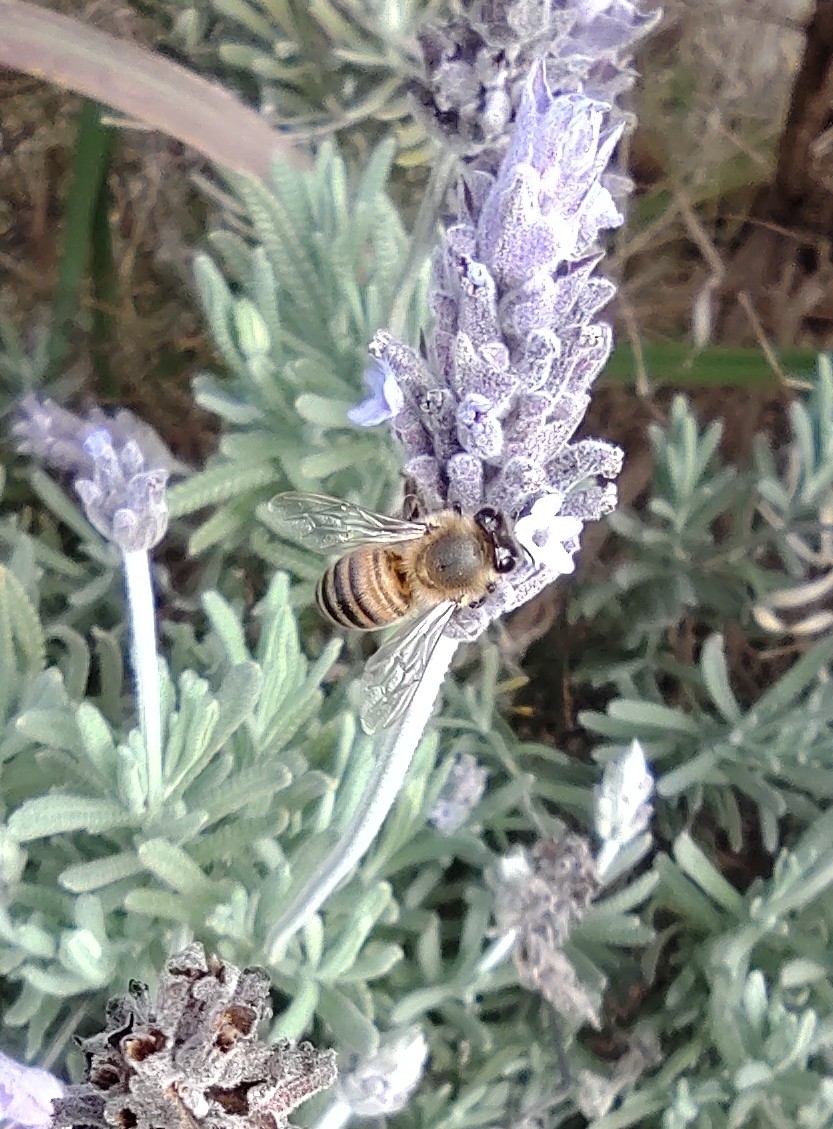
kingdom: Animalia
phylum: Arthropoda
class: Insecta
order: Hymenoptera
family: Apidae
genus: Apis
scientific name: Apis mellifera
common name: Honey bee
